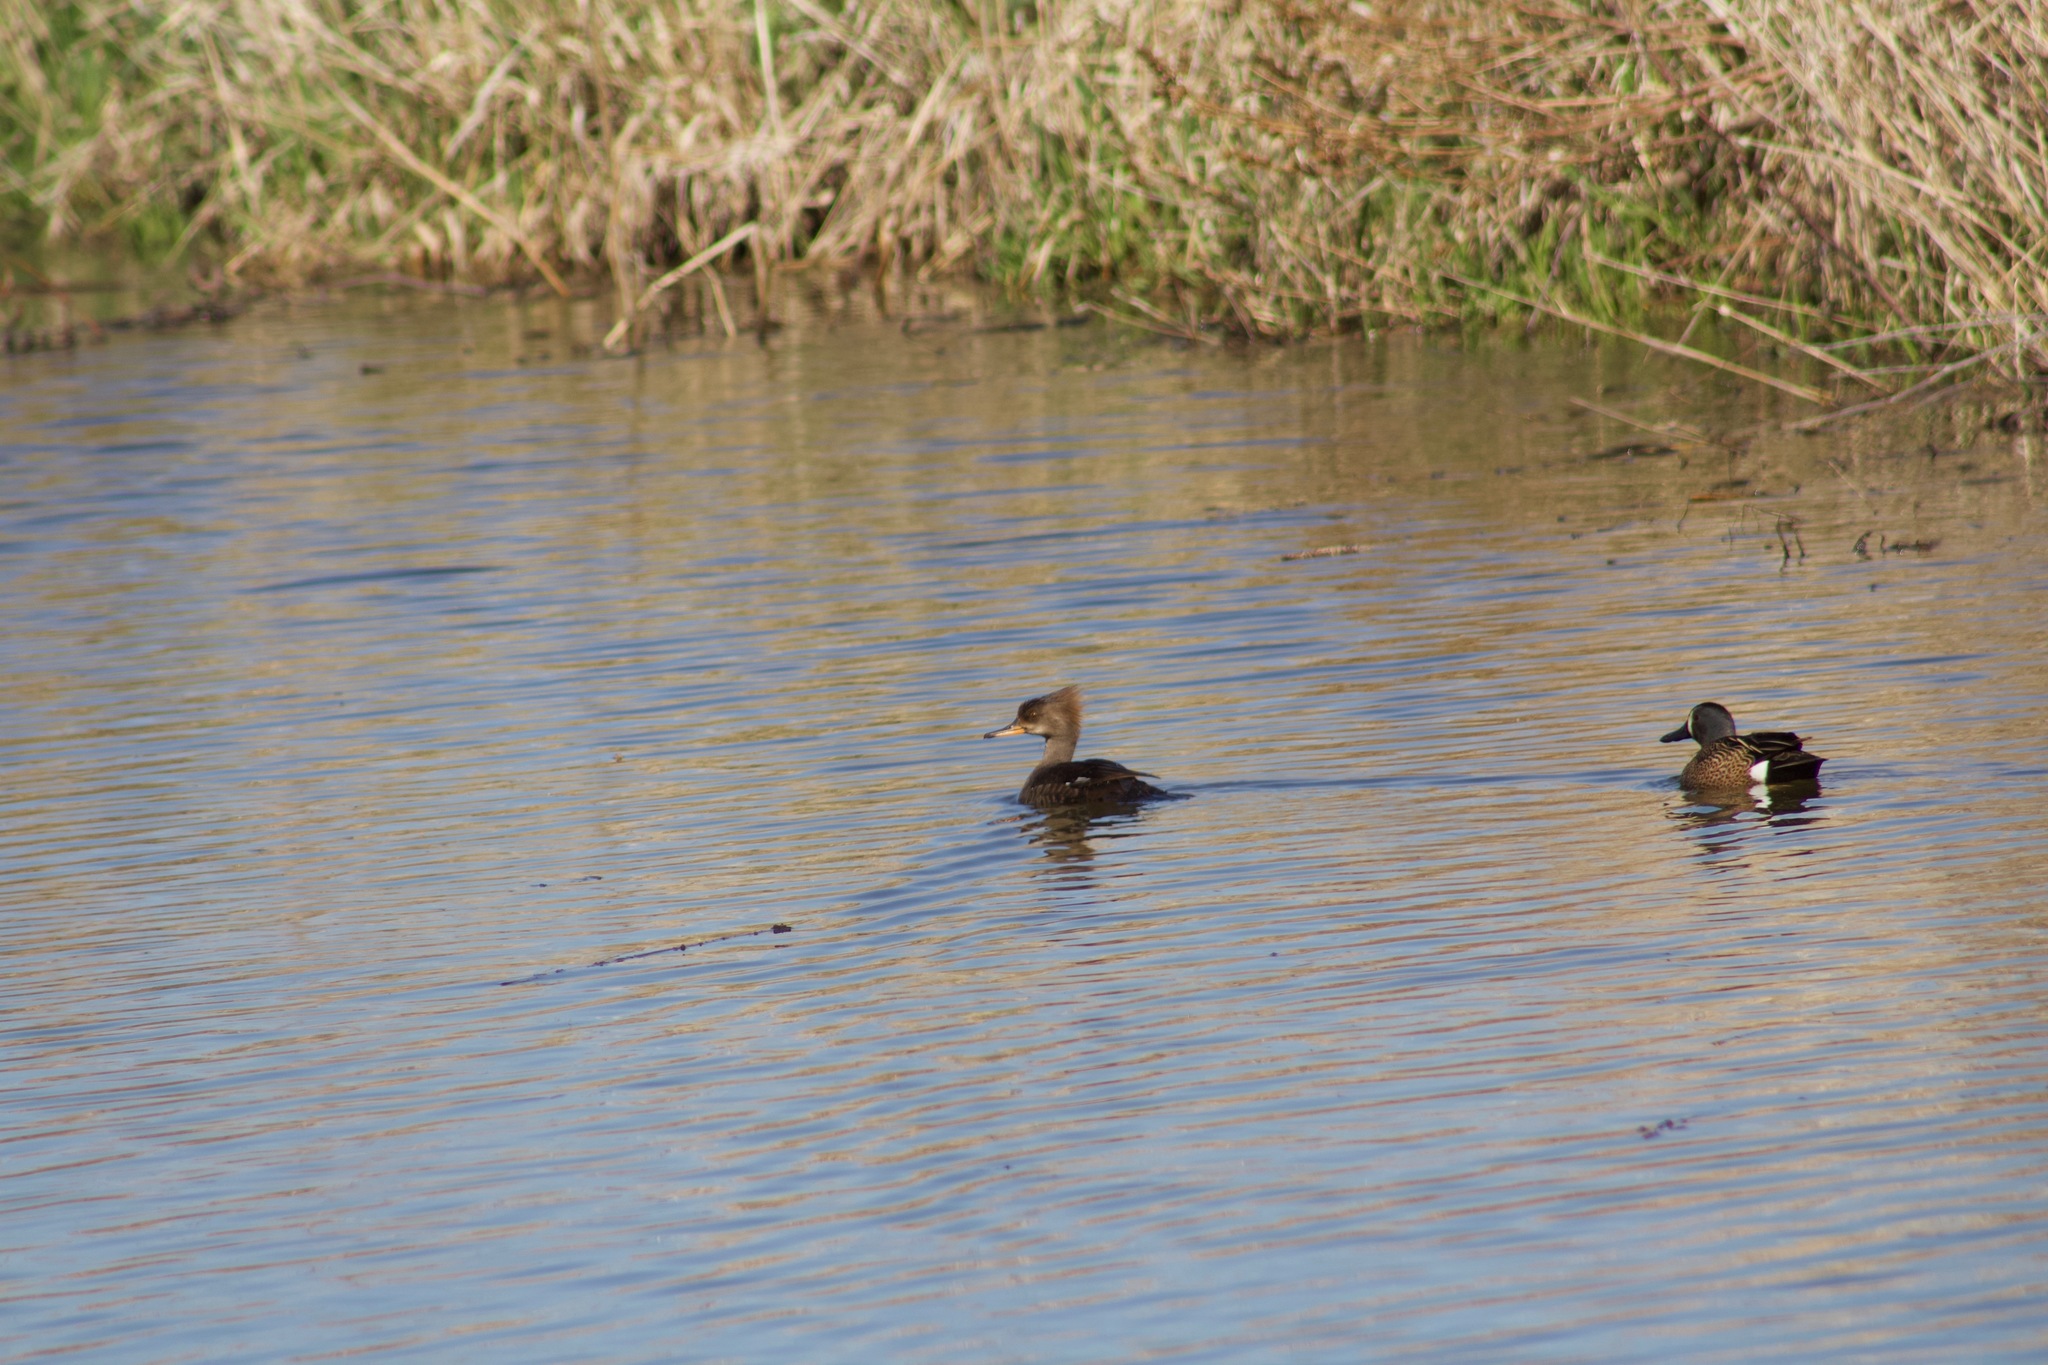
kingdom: Animalia
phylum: Chordata
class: Aves
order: Anseriformes
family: Anatidae
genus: Lophodytes
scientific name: Lophodytes cucullatus
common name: Hooded merganser
